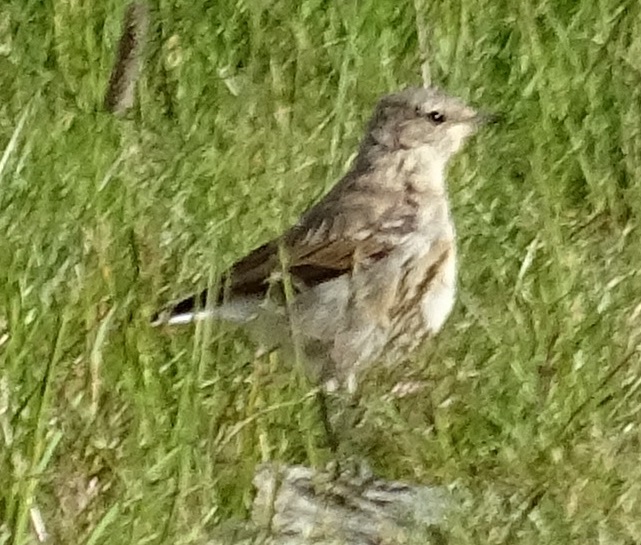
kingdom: Animalia
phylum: Chordata
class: Aves
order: Passeriformes
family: Muscicapidae
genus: Oenanthe
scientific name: Oenanthe oenanthe
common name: Northern wheatear
